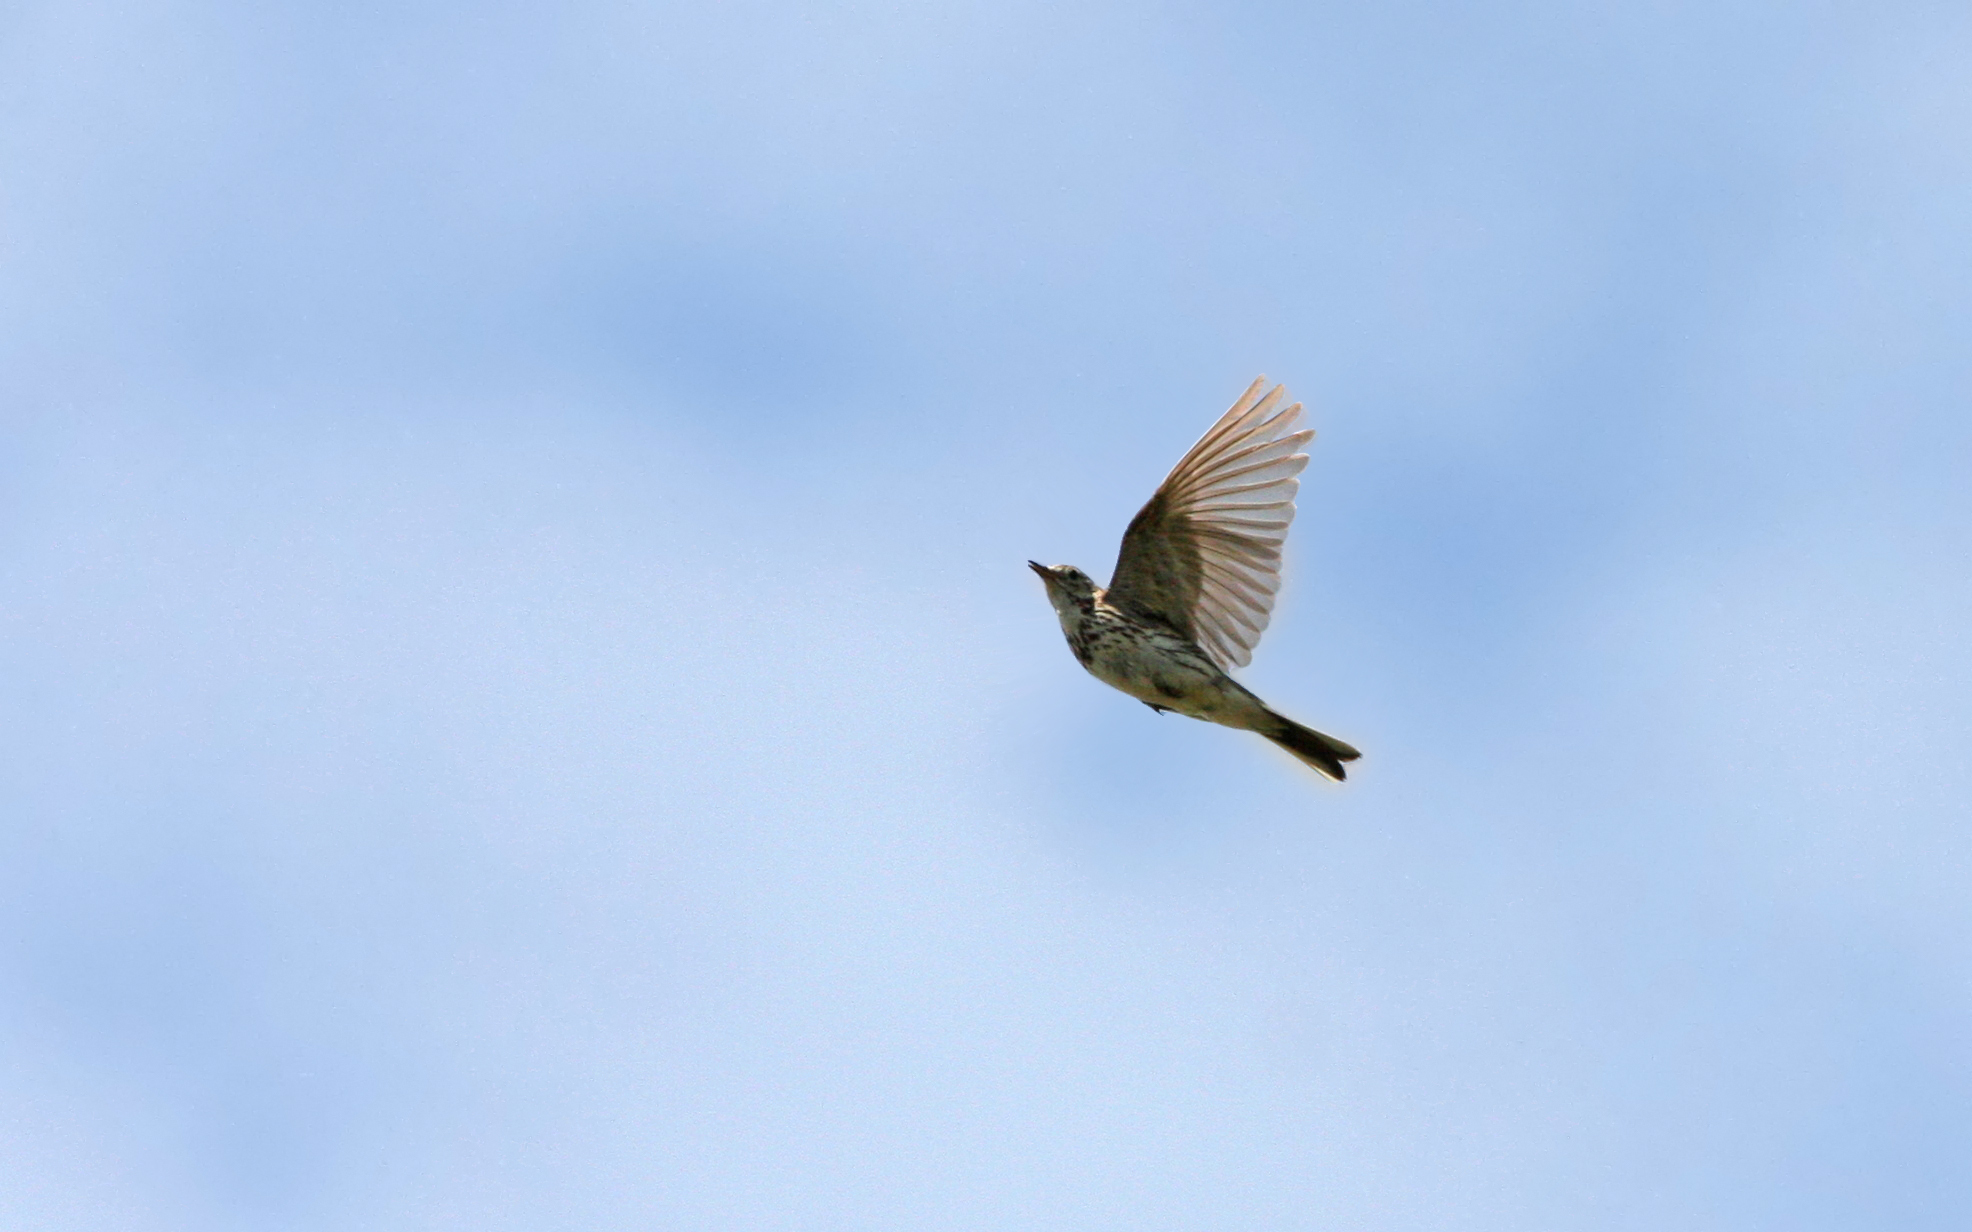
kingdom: Animalia
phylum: Chordata
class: Aves
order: Passeriformes
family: Motacillidae
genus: Anthus
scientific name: Anthus pratensis
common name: Meadow pipit
